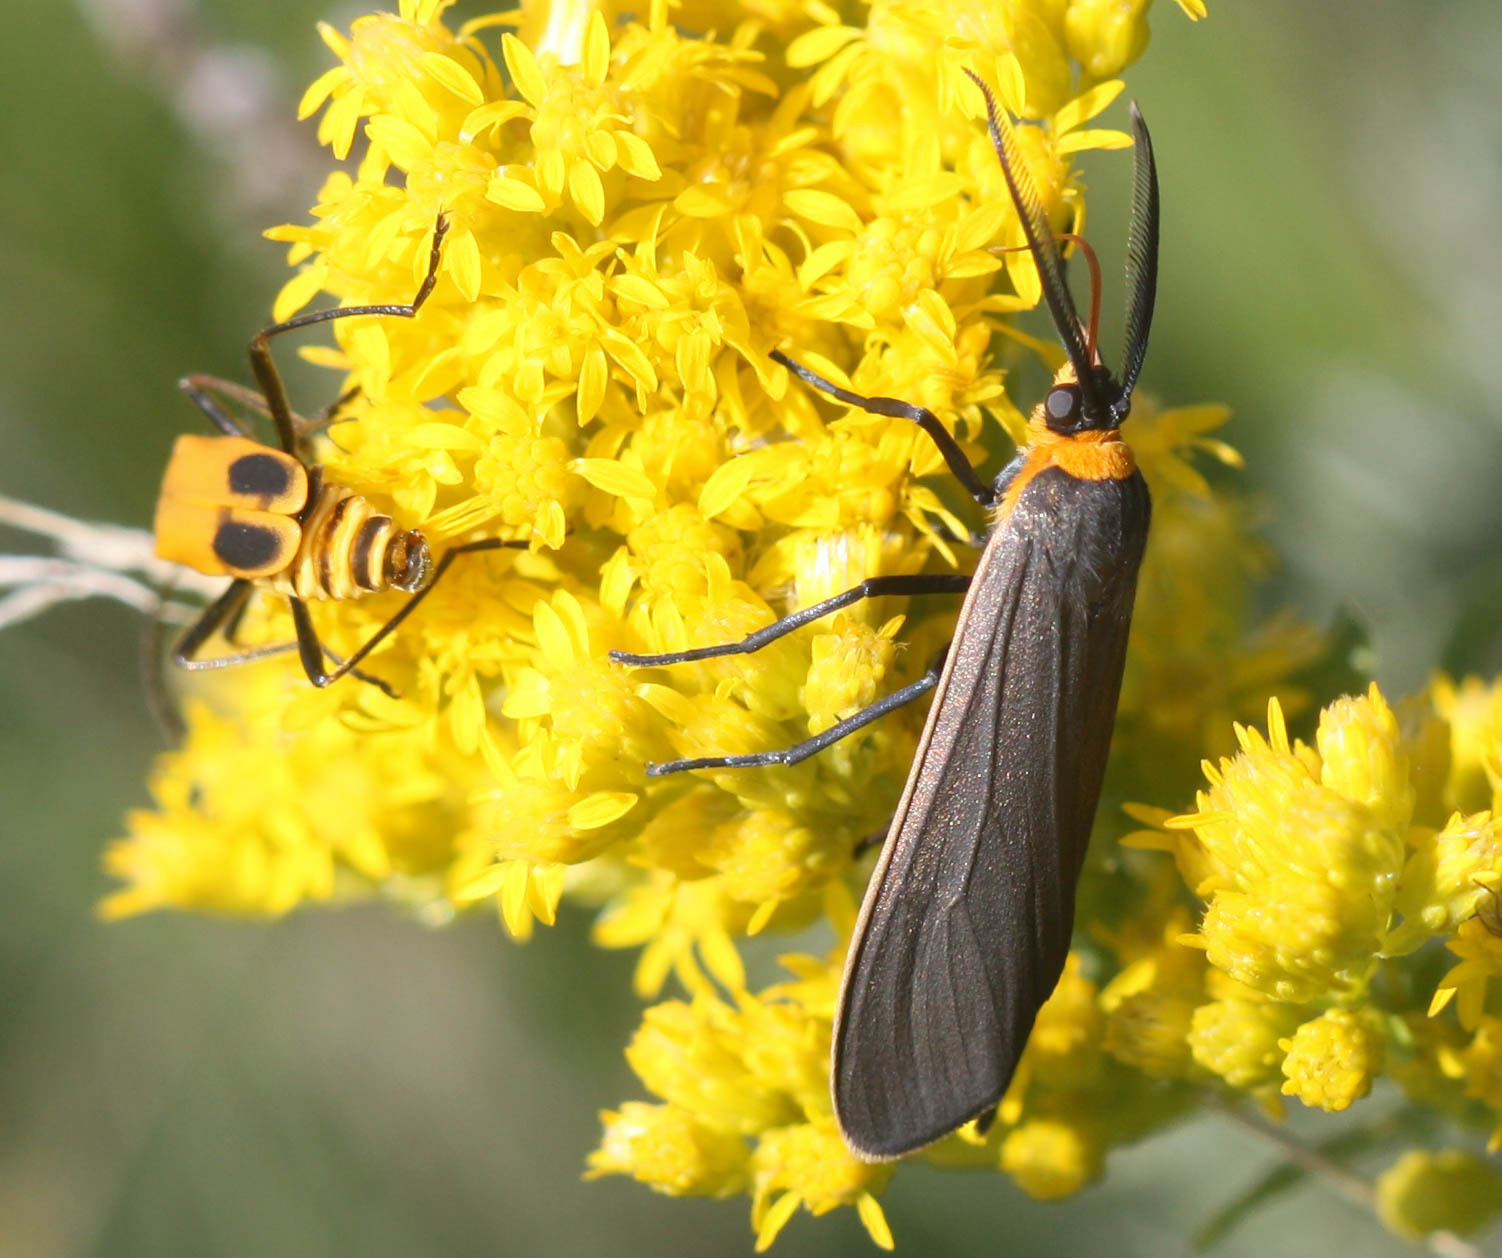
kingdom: Animalia
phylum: Arthropoda
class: Insecta
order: Lepidoptera
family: Erebidae
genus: Cisseps
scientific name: Cisseps fulvicollis
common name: Yellow-collared scape moth
